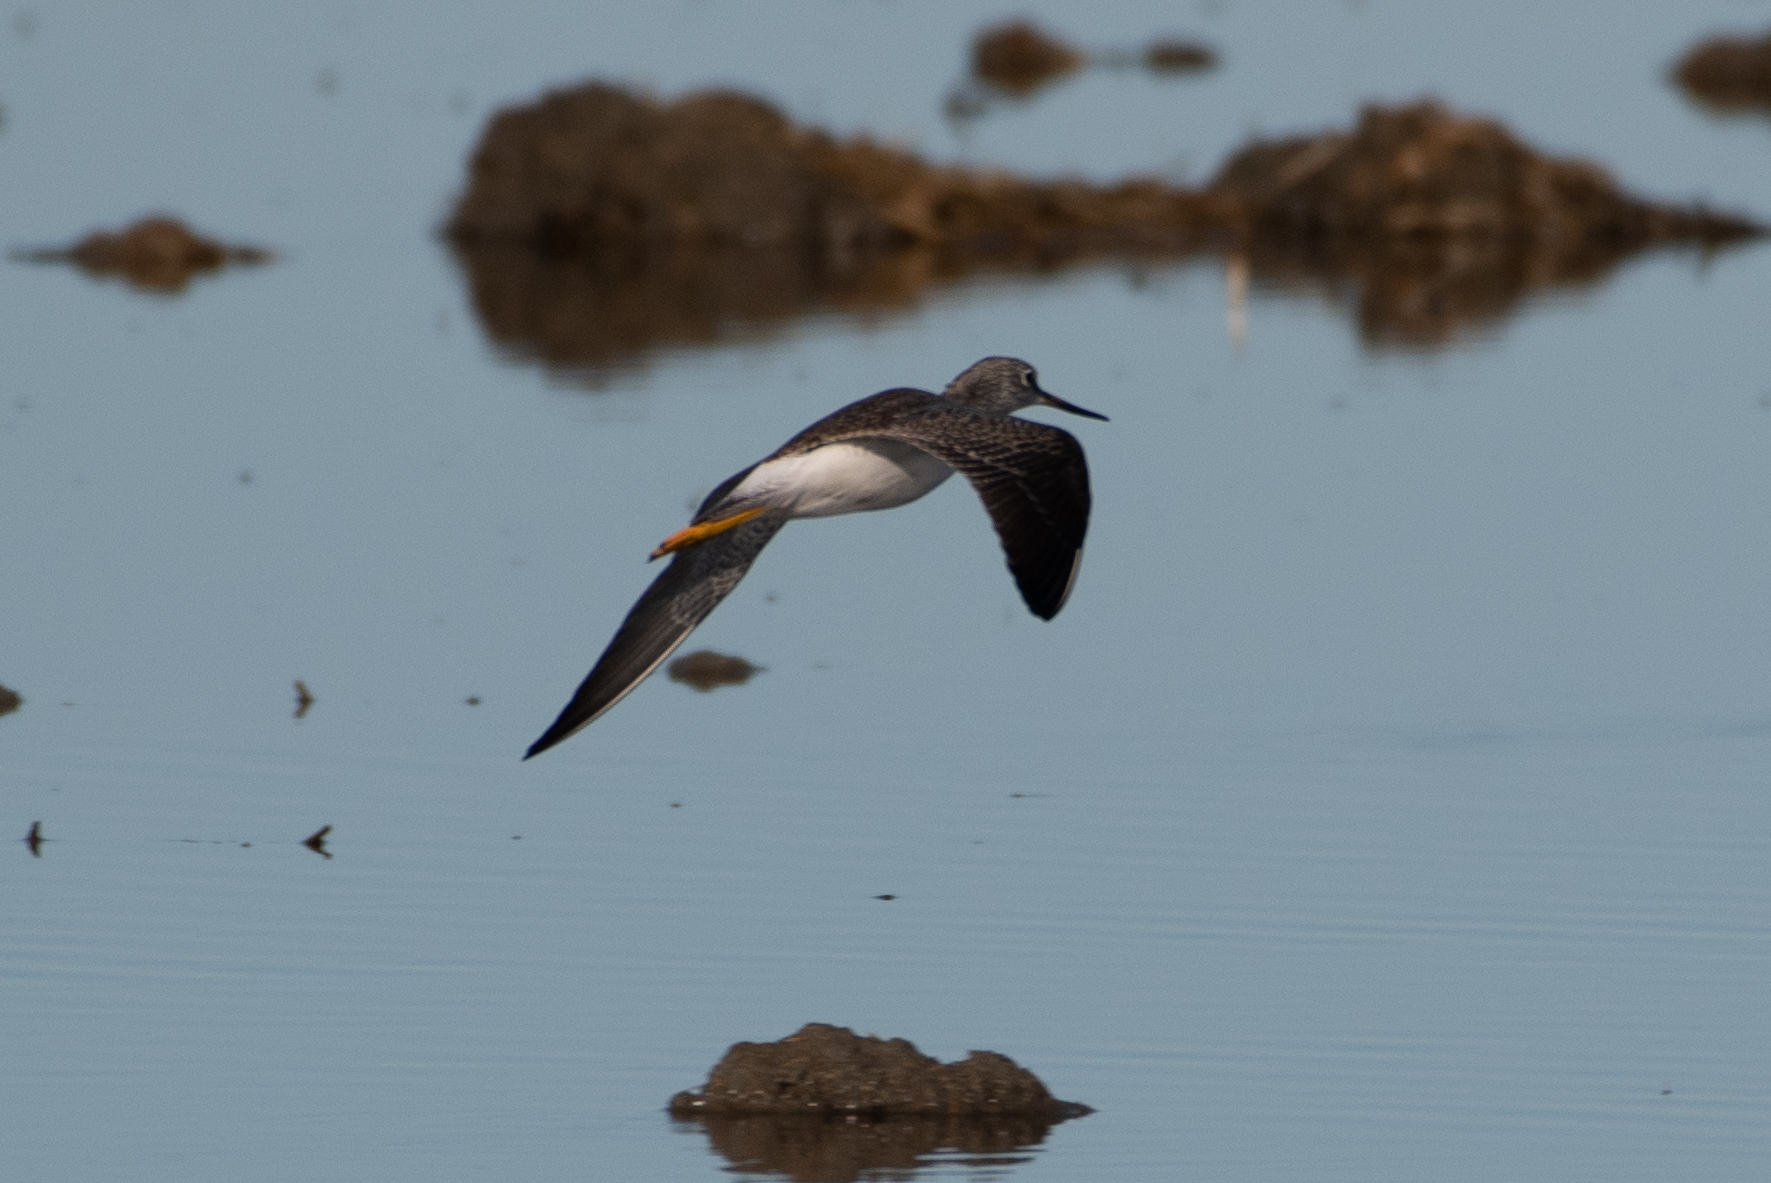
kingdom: Animalia
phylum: Chordata
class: Aves
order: Charadriiformes
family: Scolopacidae
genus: Tringa
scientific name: Tringa melanoleuca
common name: Greater yellowlegs
